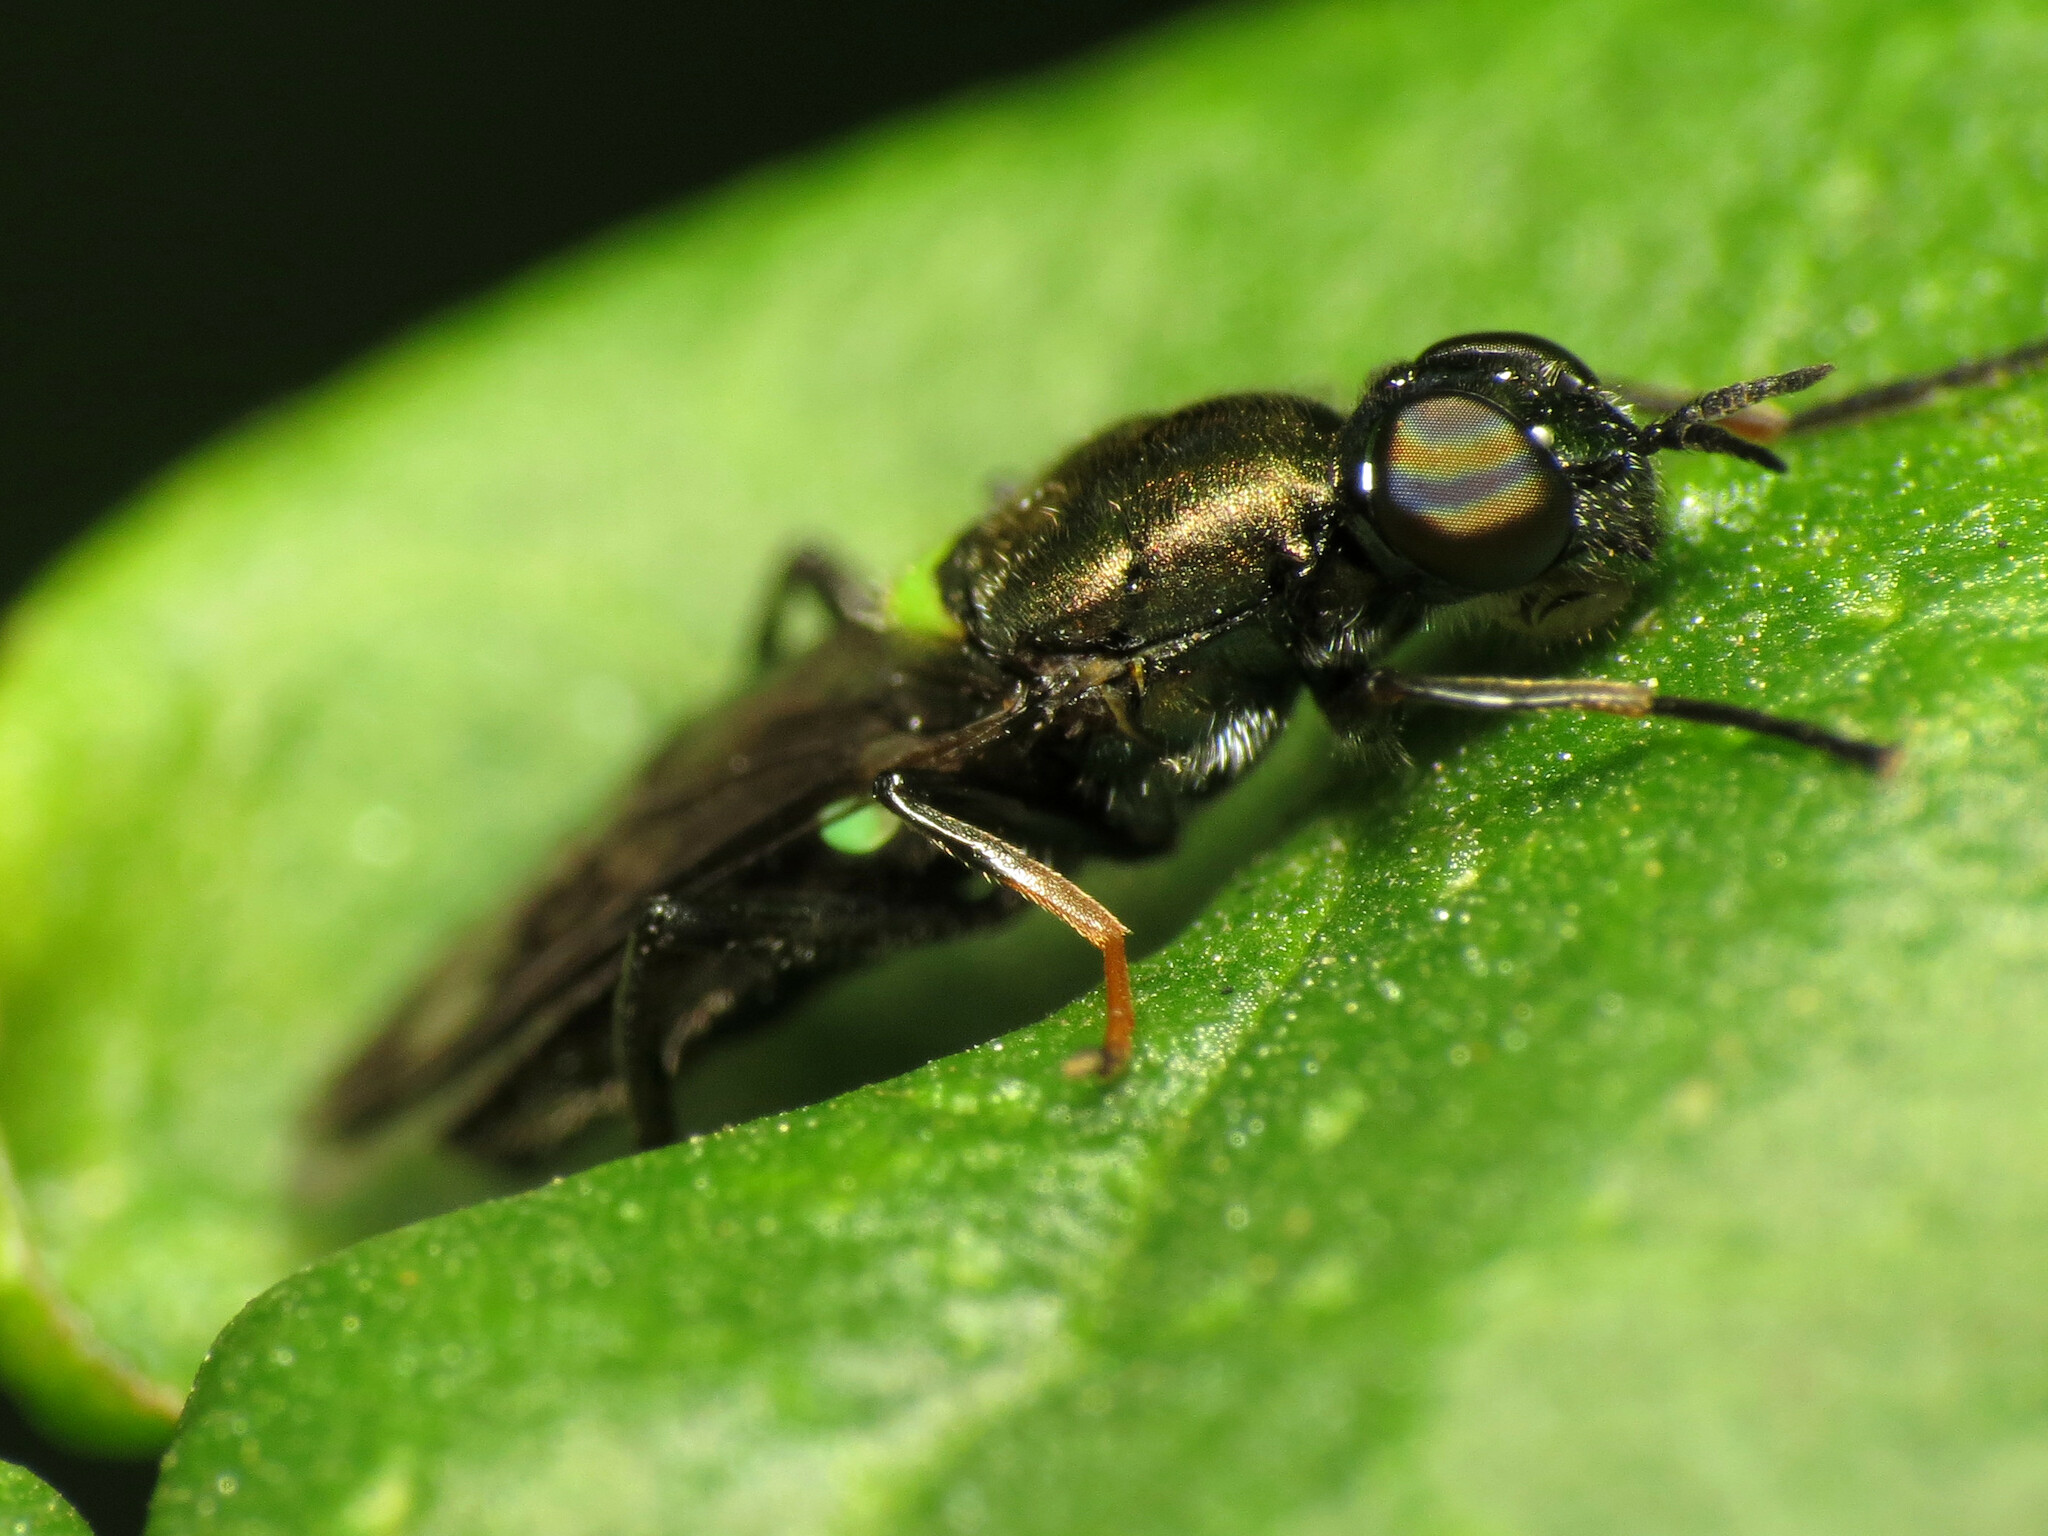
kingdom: Animalia
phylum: Arthropoda
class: Insecta
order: Diptera
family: Stratiomyidae
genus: Myxosargus
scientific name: Myxosargus nigricormis
